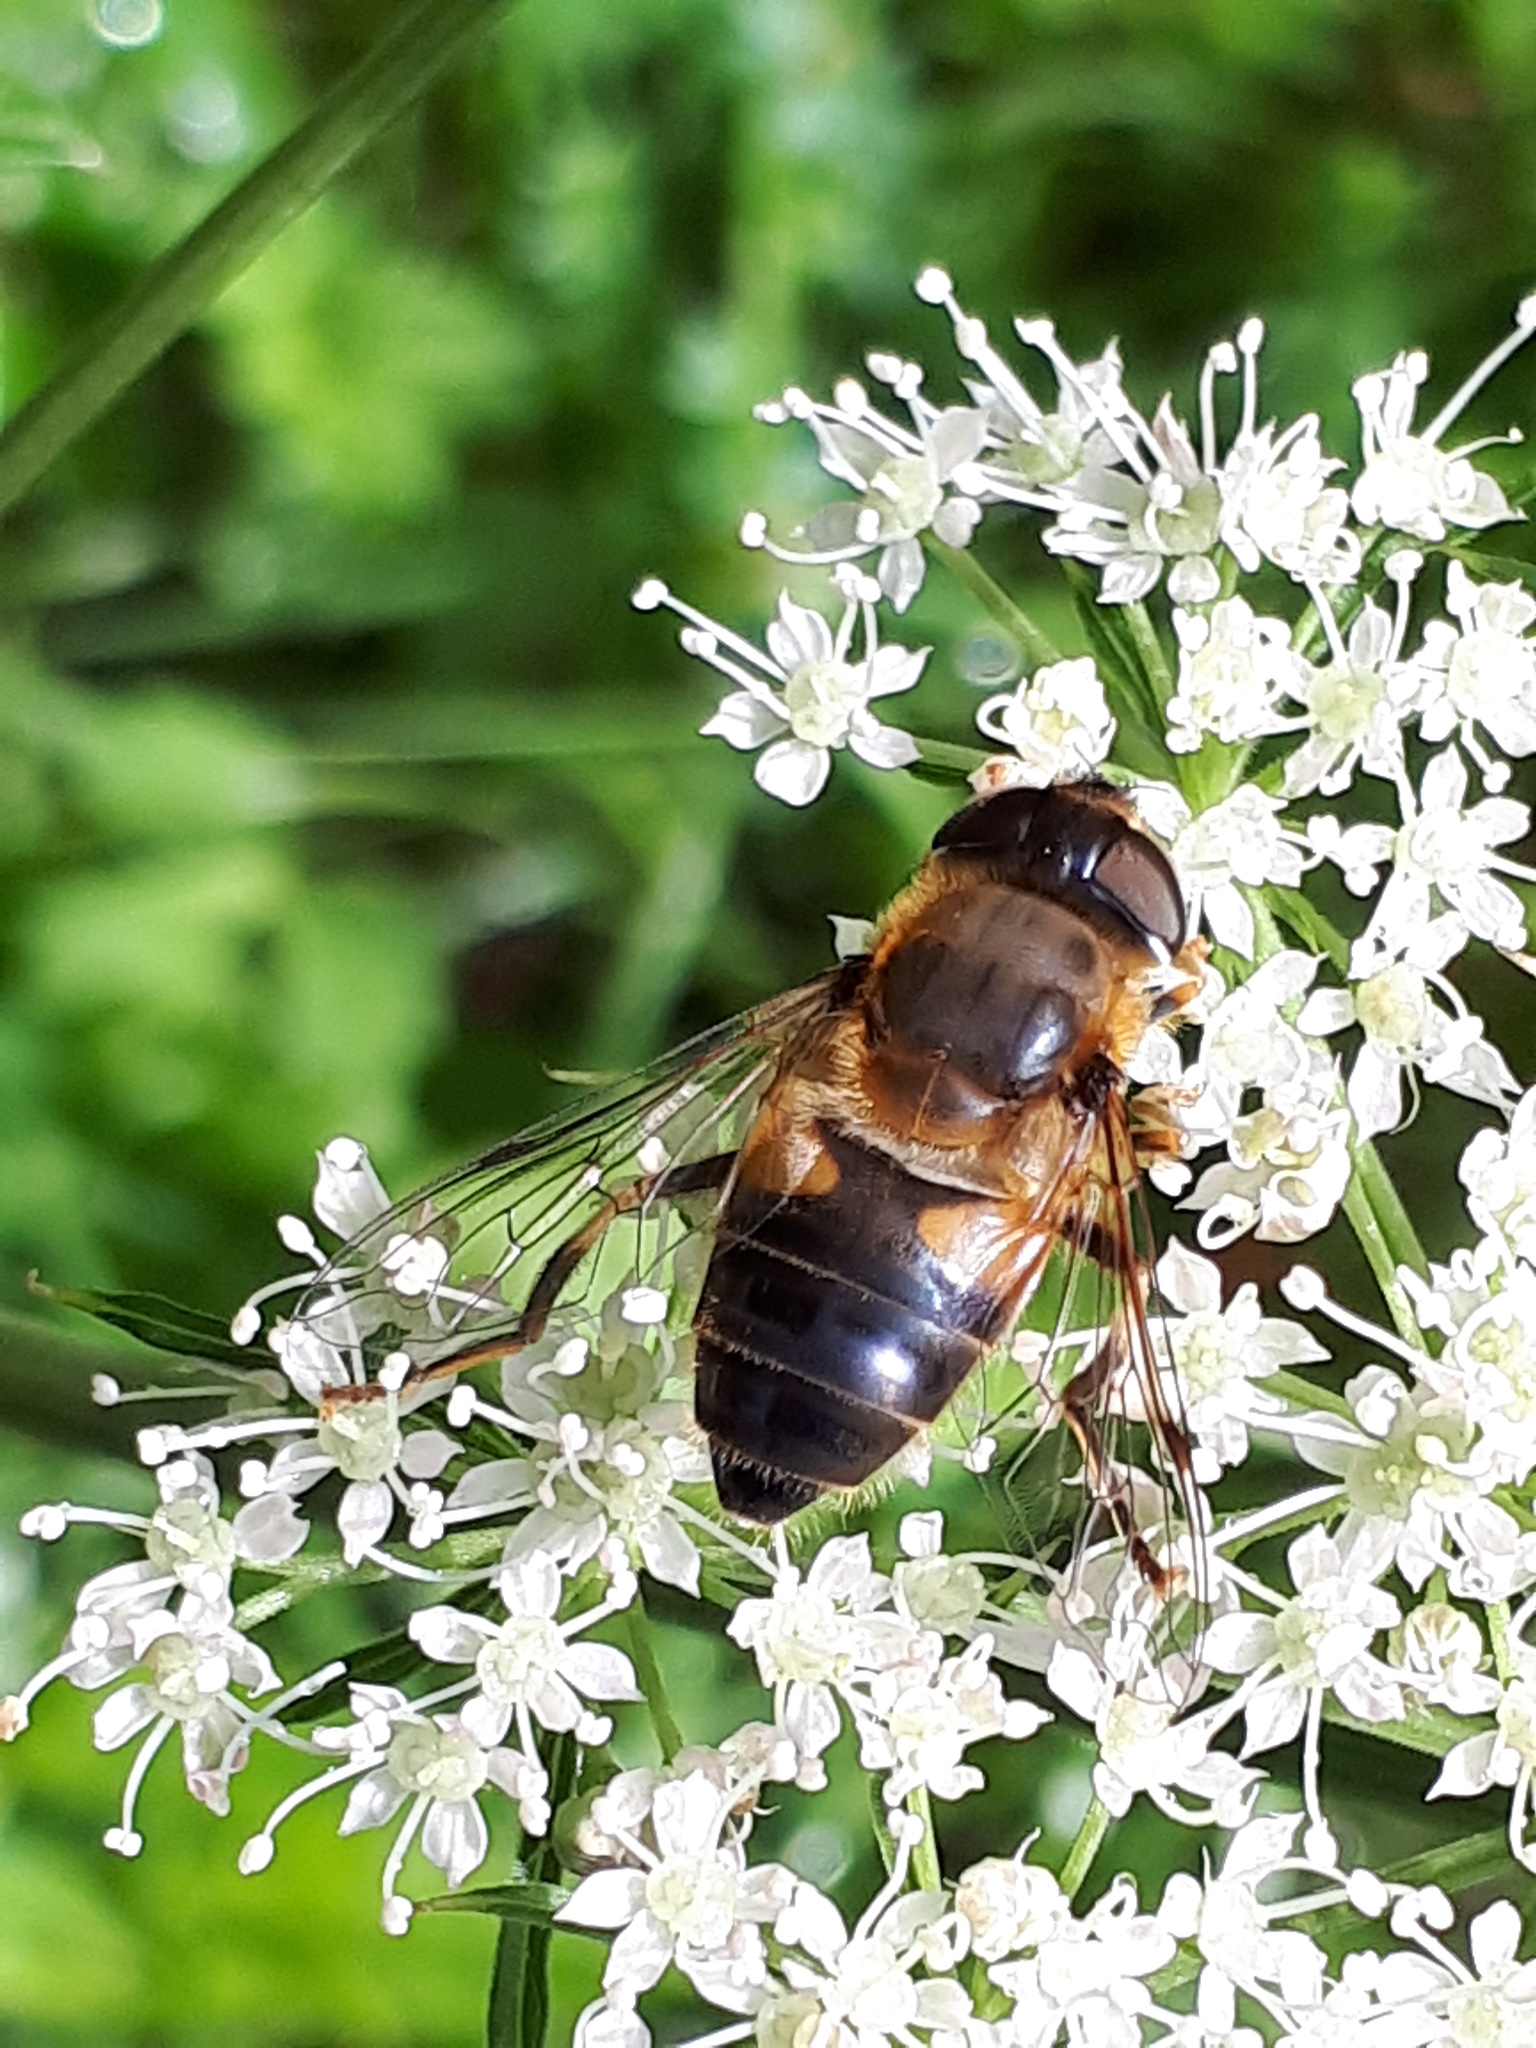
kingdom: Animalia
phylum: Arthropoda
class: Insecta
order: Diptera
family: Syrphidae
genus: Eristalis
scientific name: Eristalis pertinax
